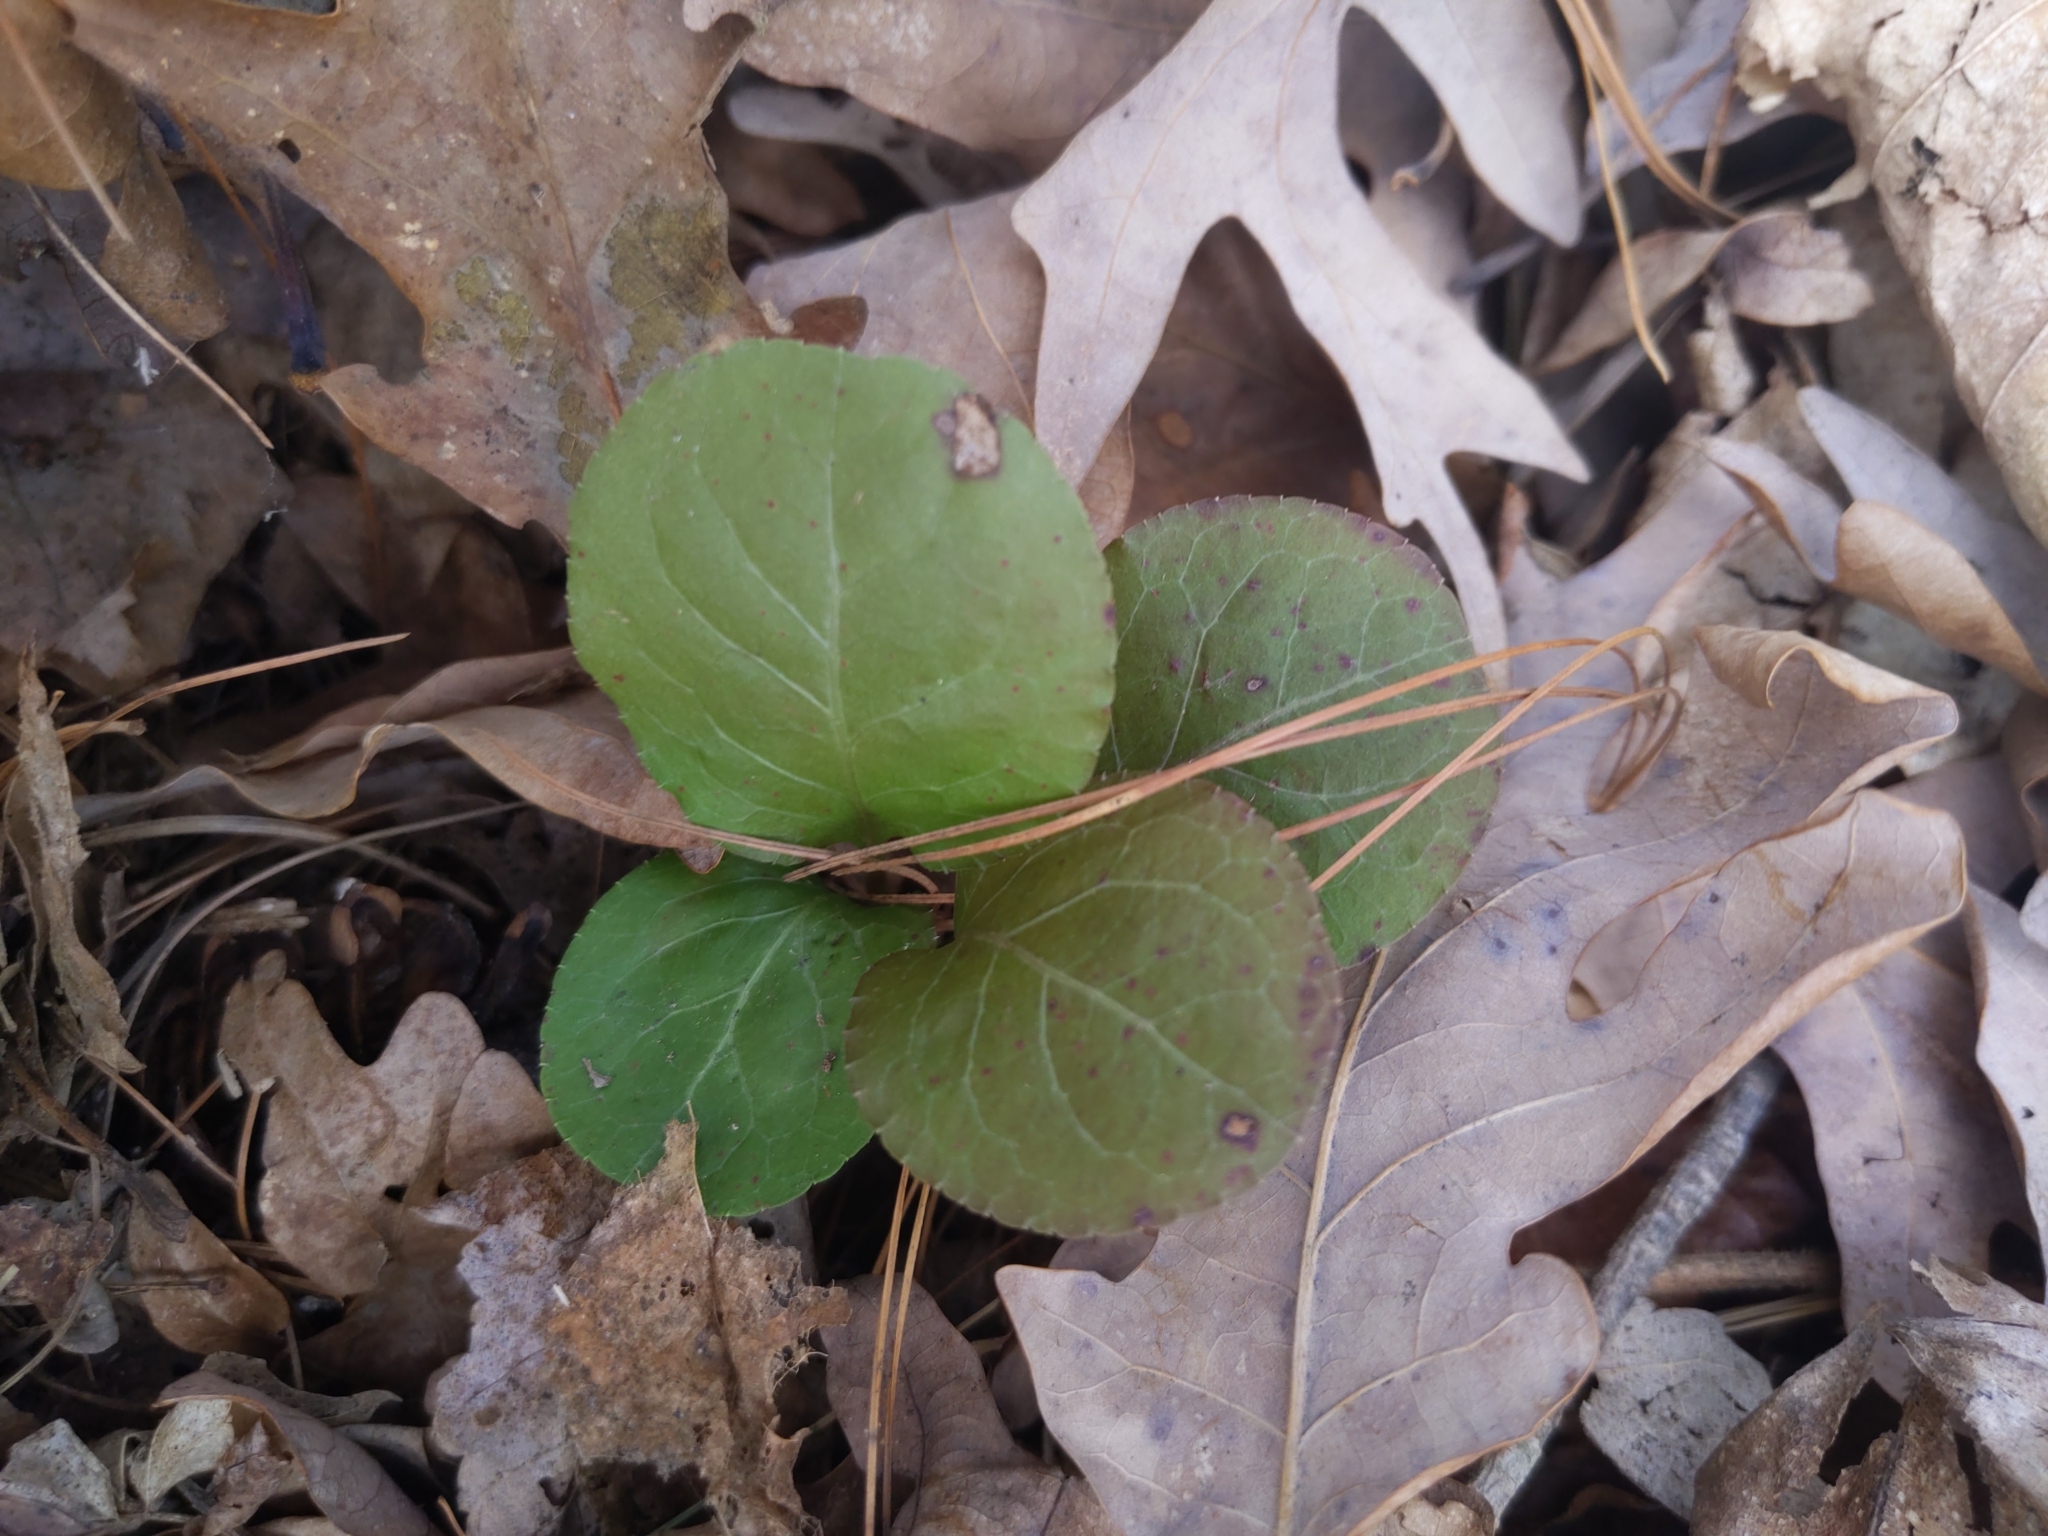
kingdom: Plantae
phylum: Tracheophyta
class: Magnoliopsida
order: Ericales
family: Ericaceae
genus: Pyrola
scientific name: Pyrola elliptica
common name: Shinleaf
